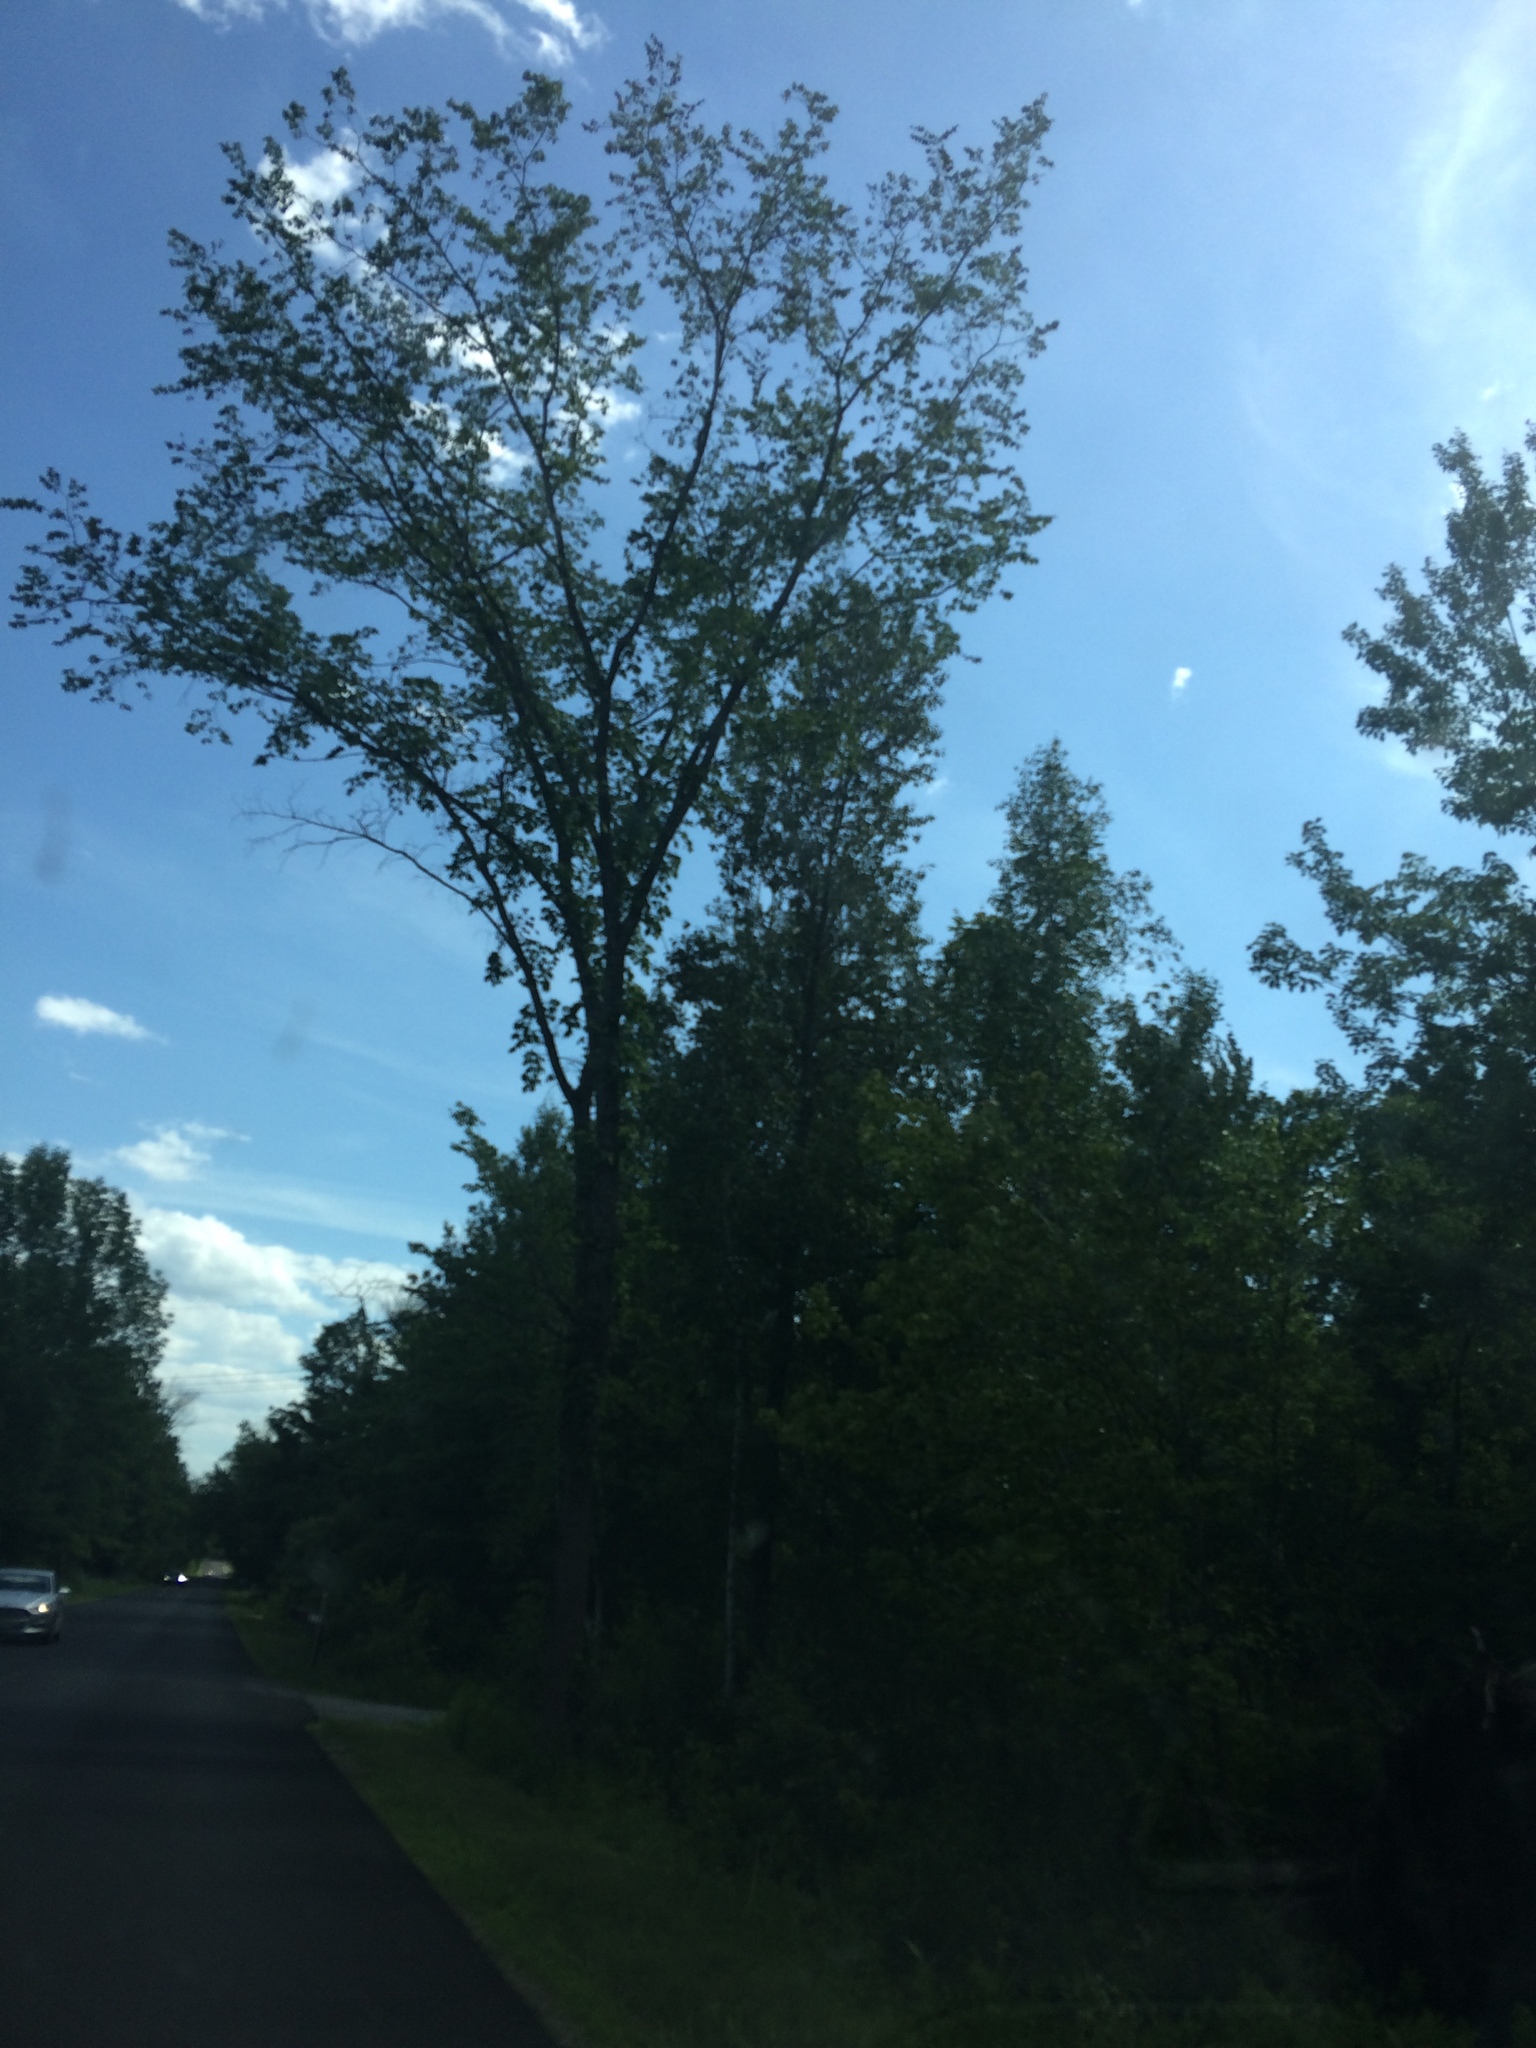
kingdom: Plantae
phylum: Tracheophyta
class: Magnoliopsida
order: Rosales
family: Ulmaceae
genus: Ulmus
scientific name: Ulmus americana
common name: American elm
